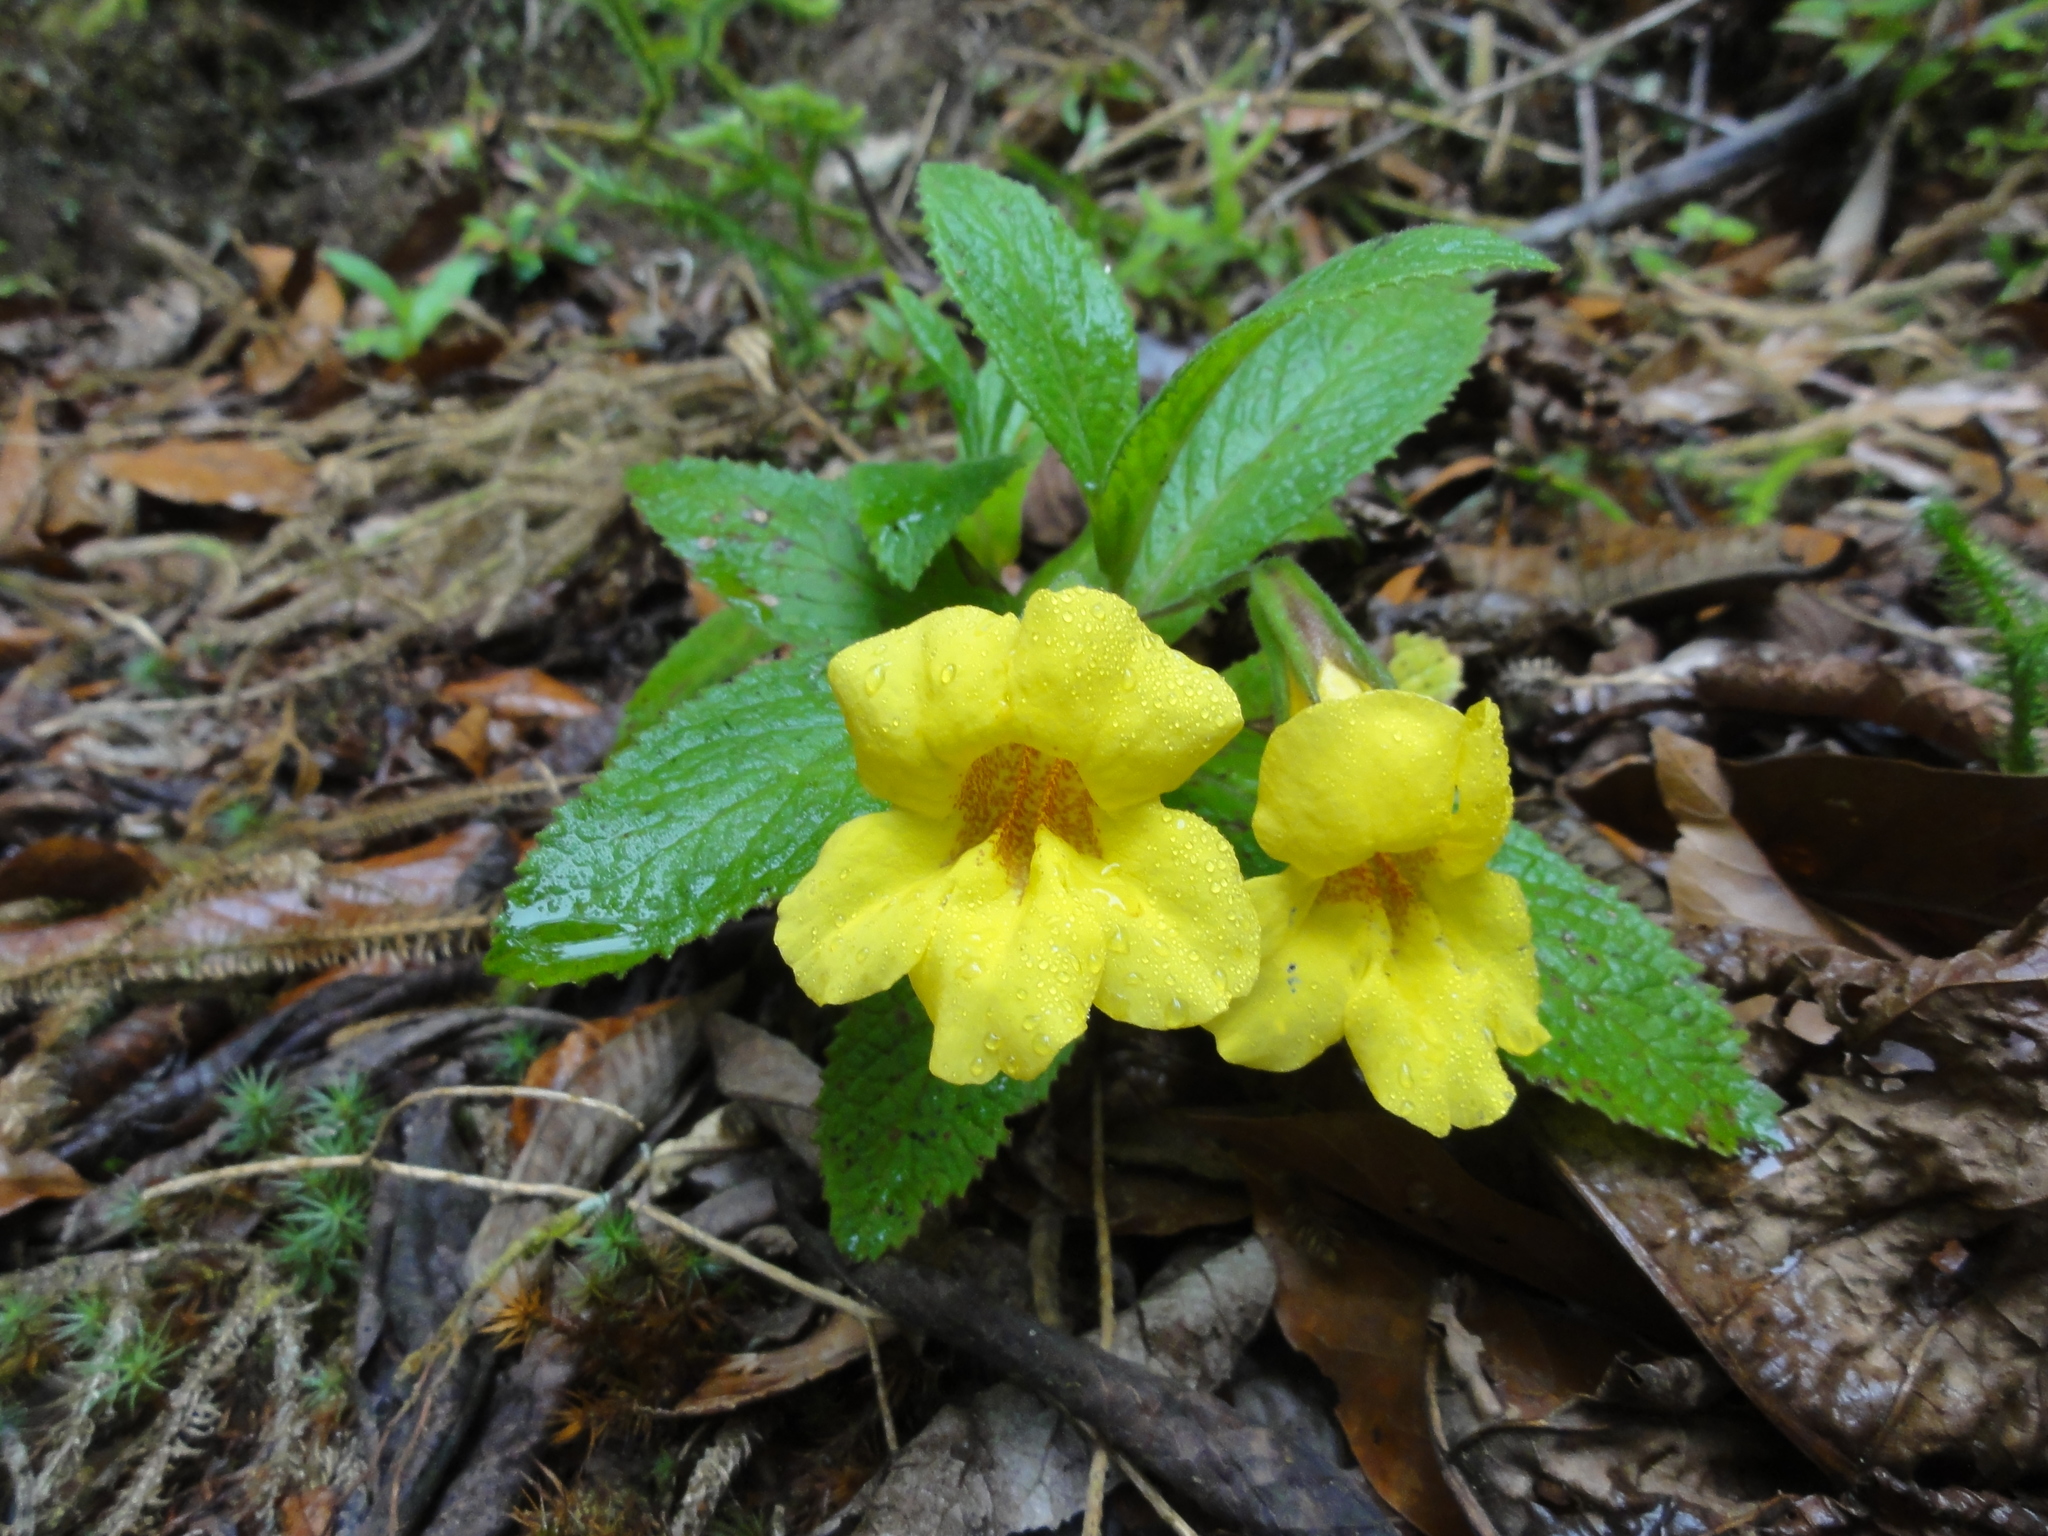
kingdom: Plantae
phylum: Tracheophyta
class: Magnoliopsida
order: Lamiales
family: Phrymaceae
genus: Hemichaena
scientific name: Hemichaena fruticosa
